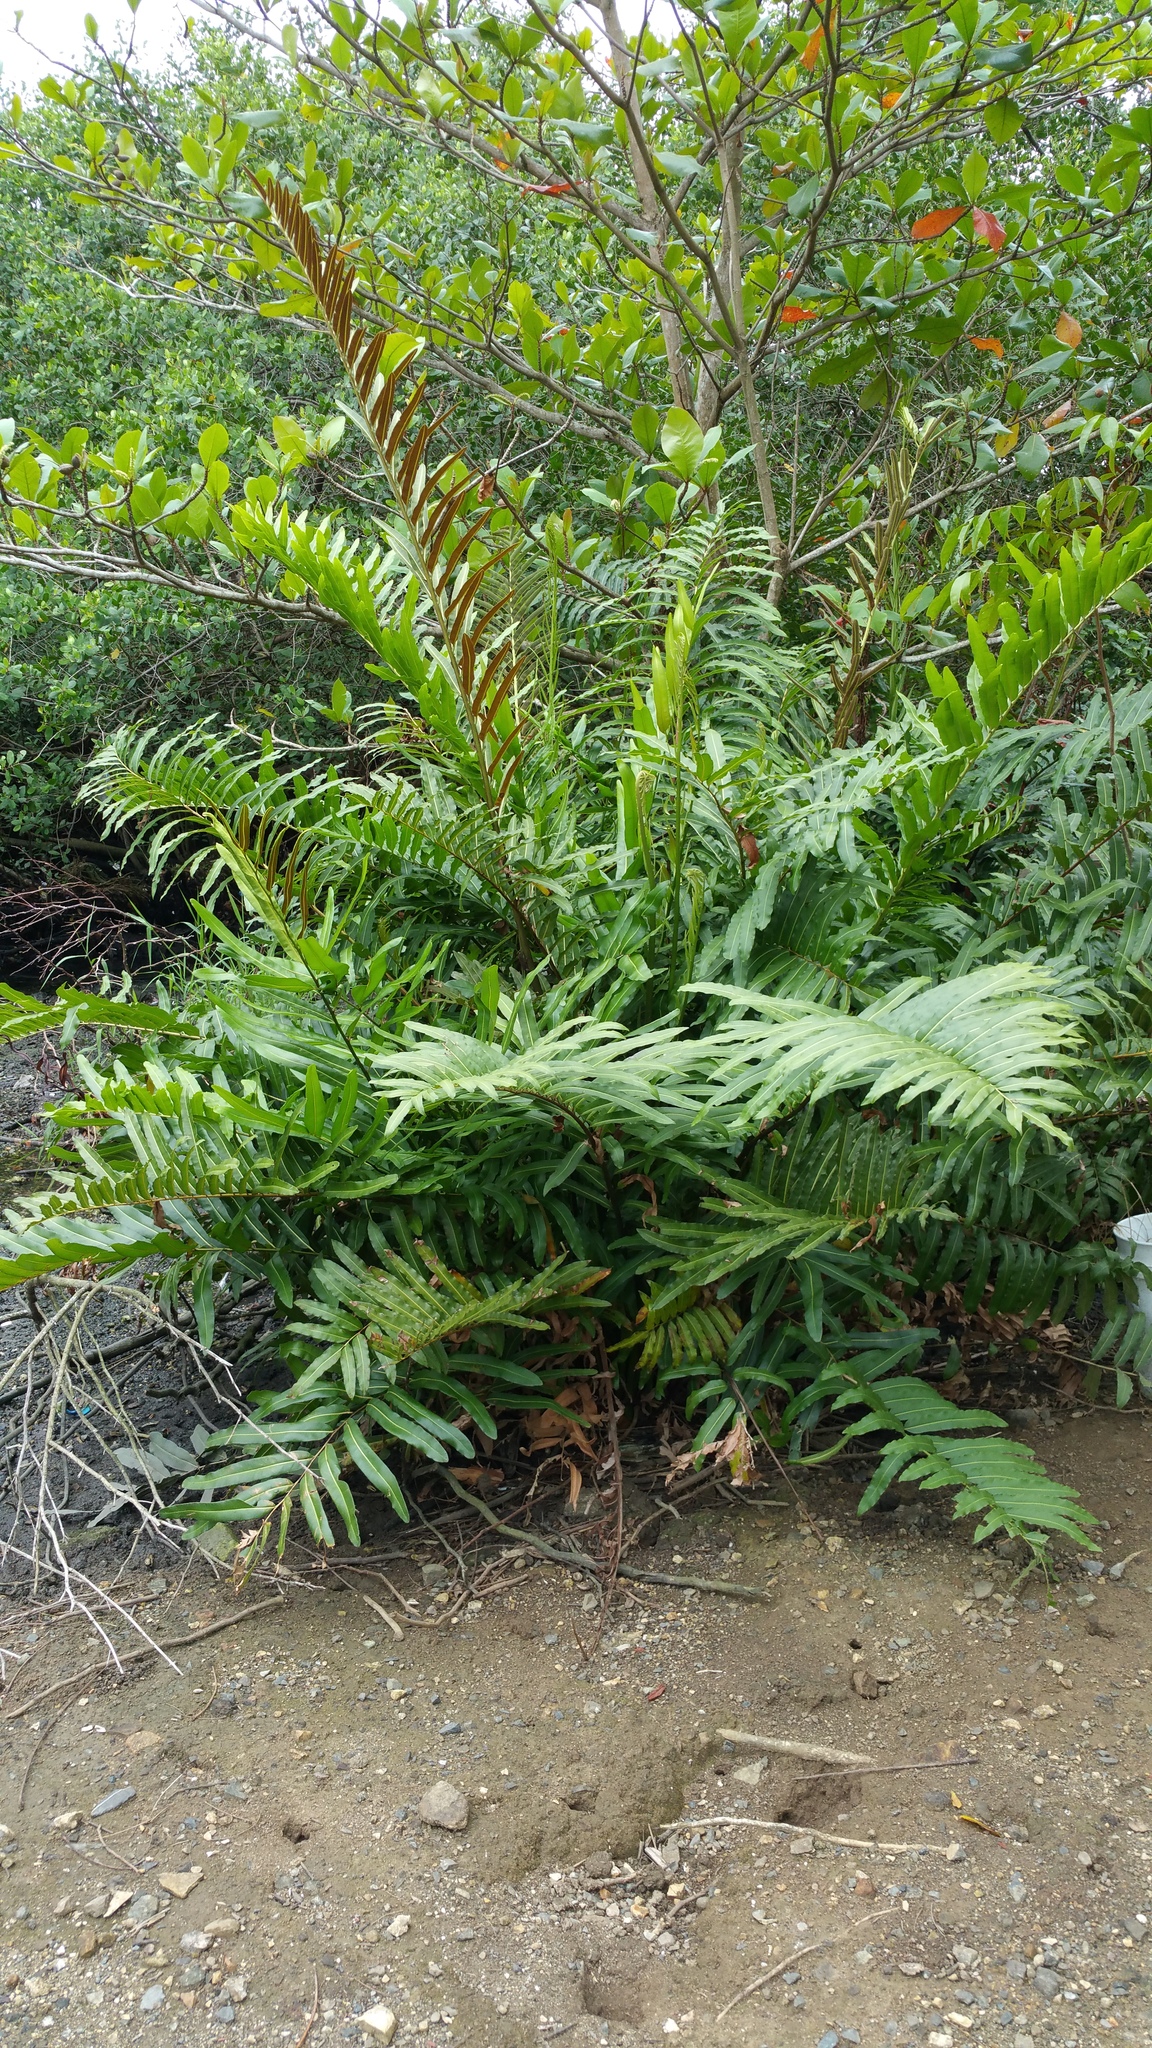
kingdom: Plantae
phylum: Tracheophyta
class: Polypodiopsida
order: Polypodiales
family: Pteridaceae
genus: Acrostichum
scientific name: Acrostichum danaeifolium
